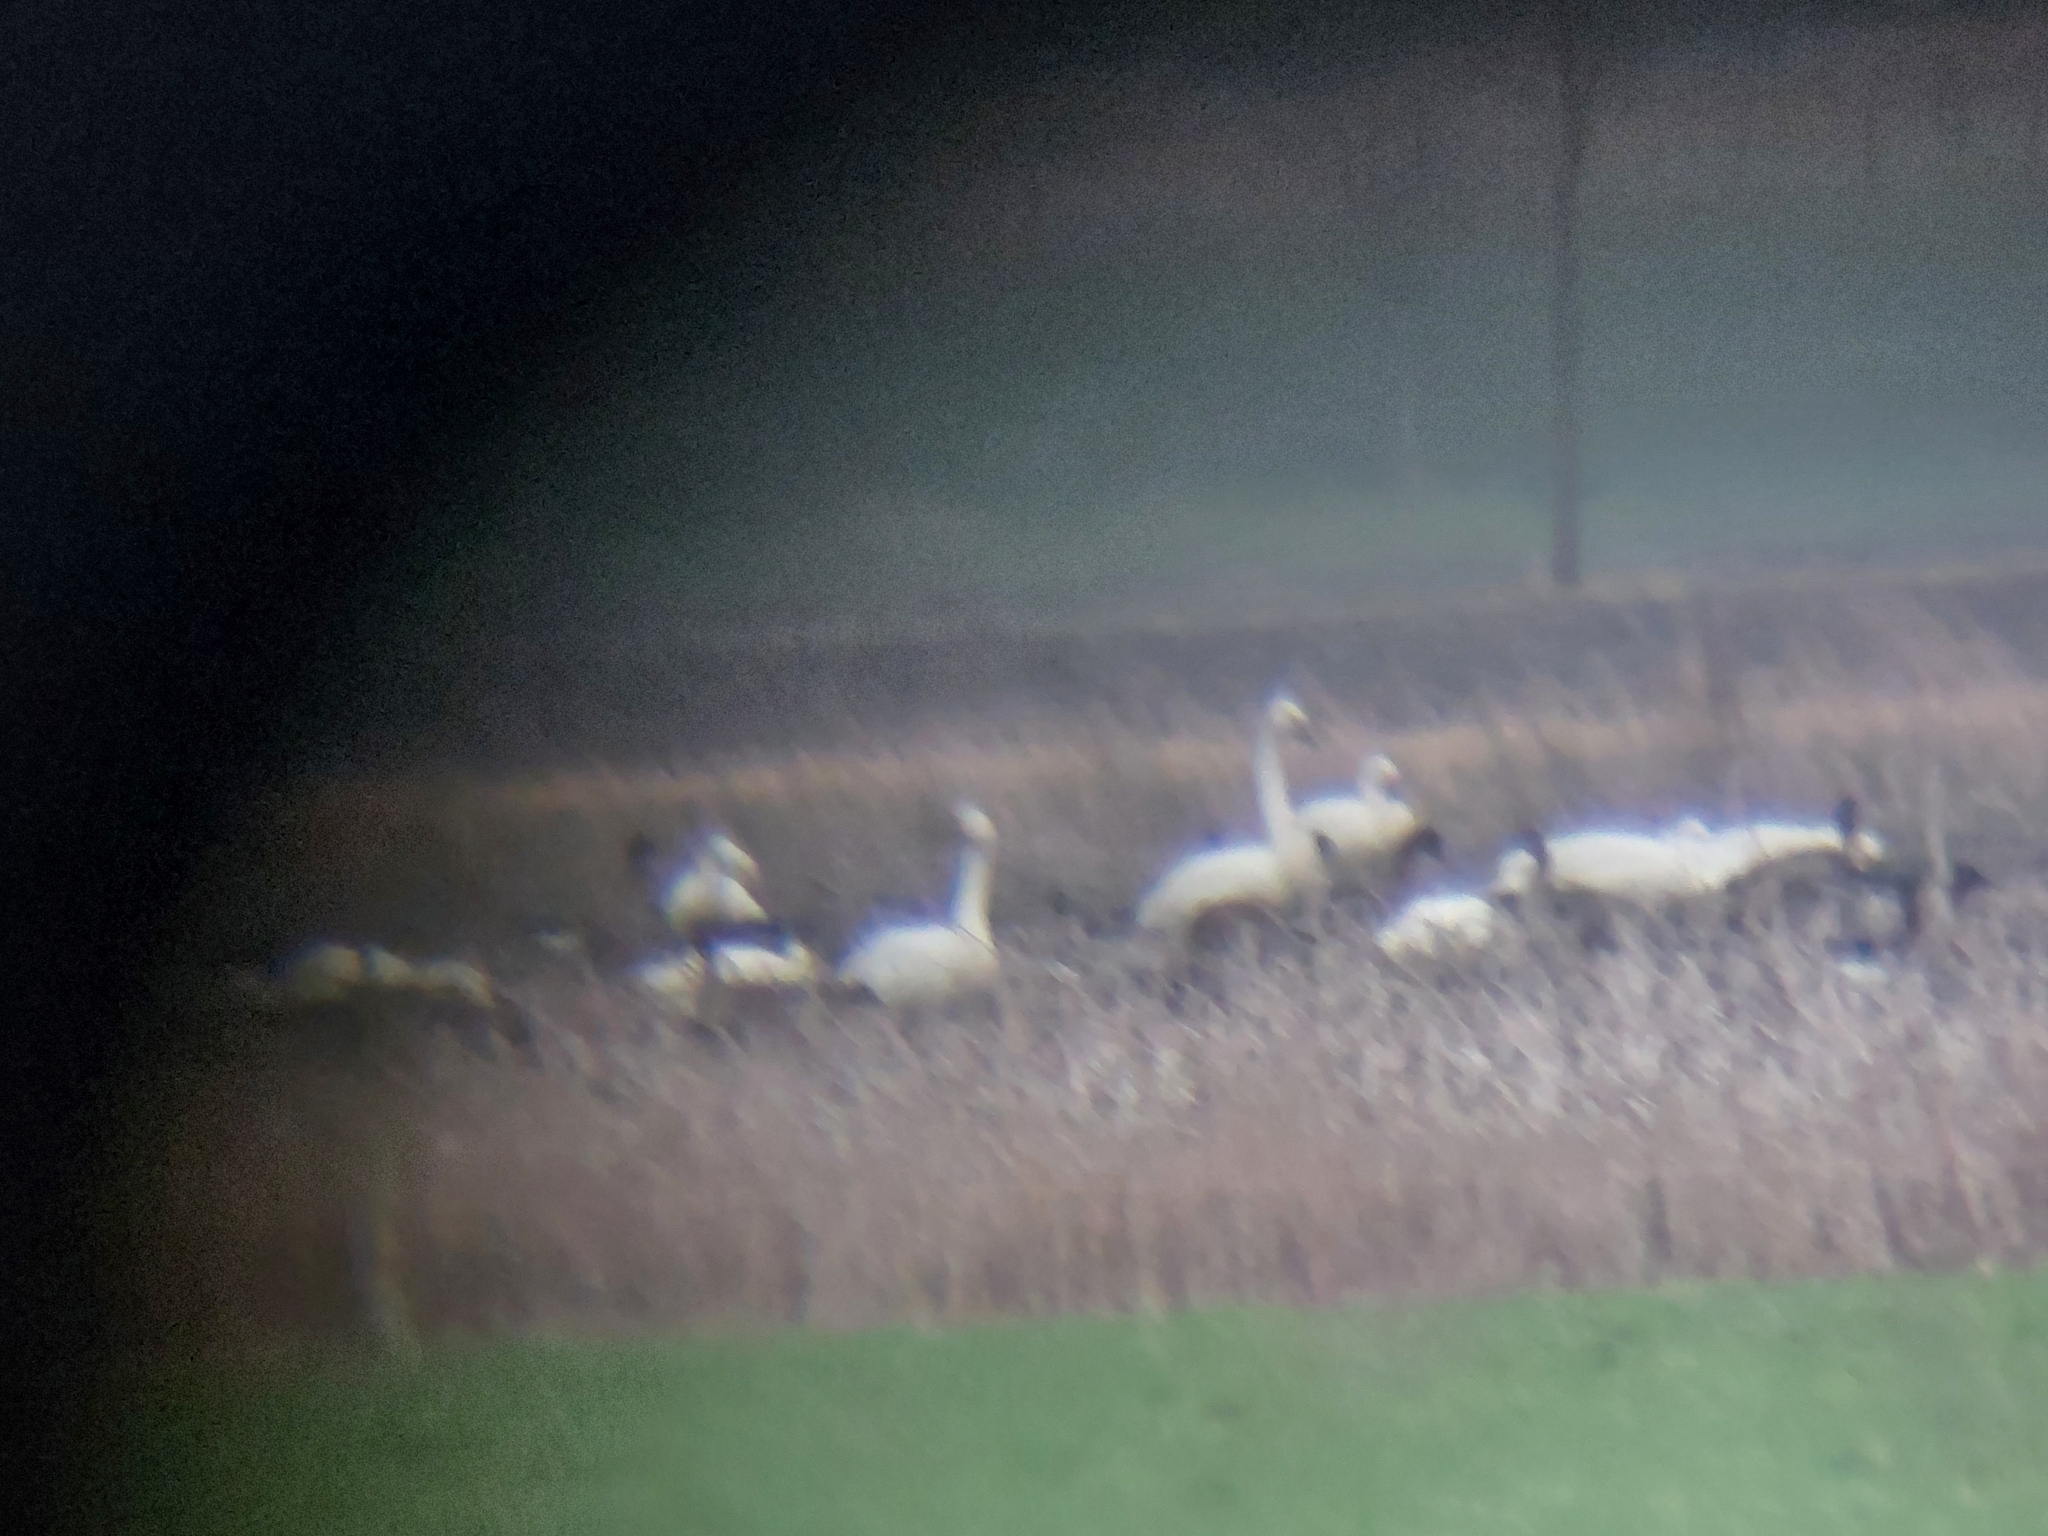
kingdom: Animalia
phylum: Chordata
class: Aves
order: Anseriformes
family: Anatidae
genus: Cygnus
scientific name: Cygnus columbianus
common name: Tundra swan
